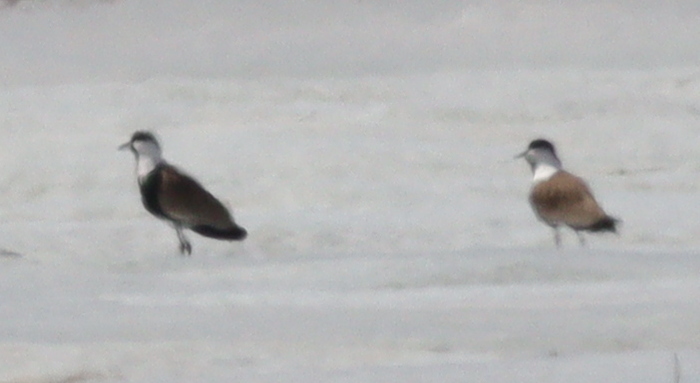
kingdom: Animalia
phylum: Chordata
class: Aves
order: Charadriiformes
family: Charadriidae
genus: Vanellus
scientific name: Vanellus spinosus
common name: Spur-winged lapwing
